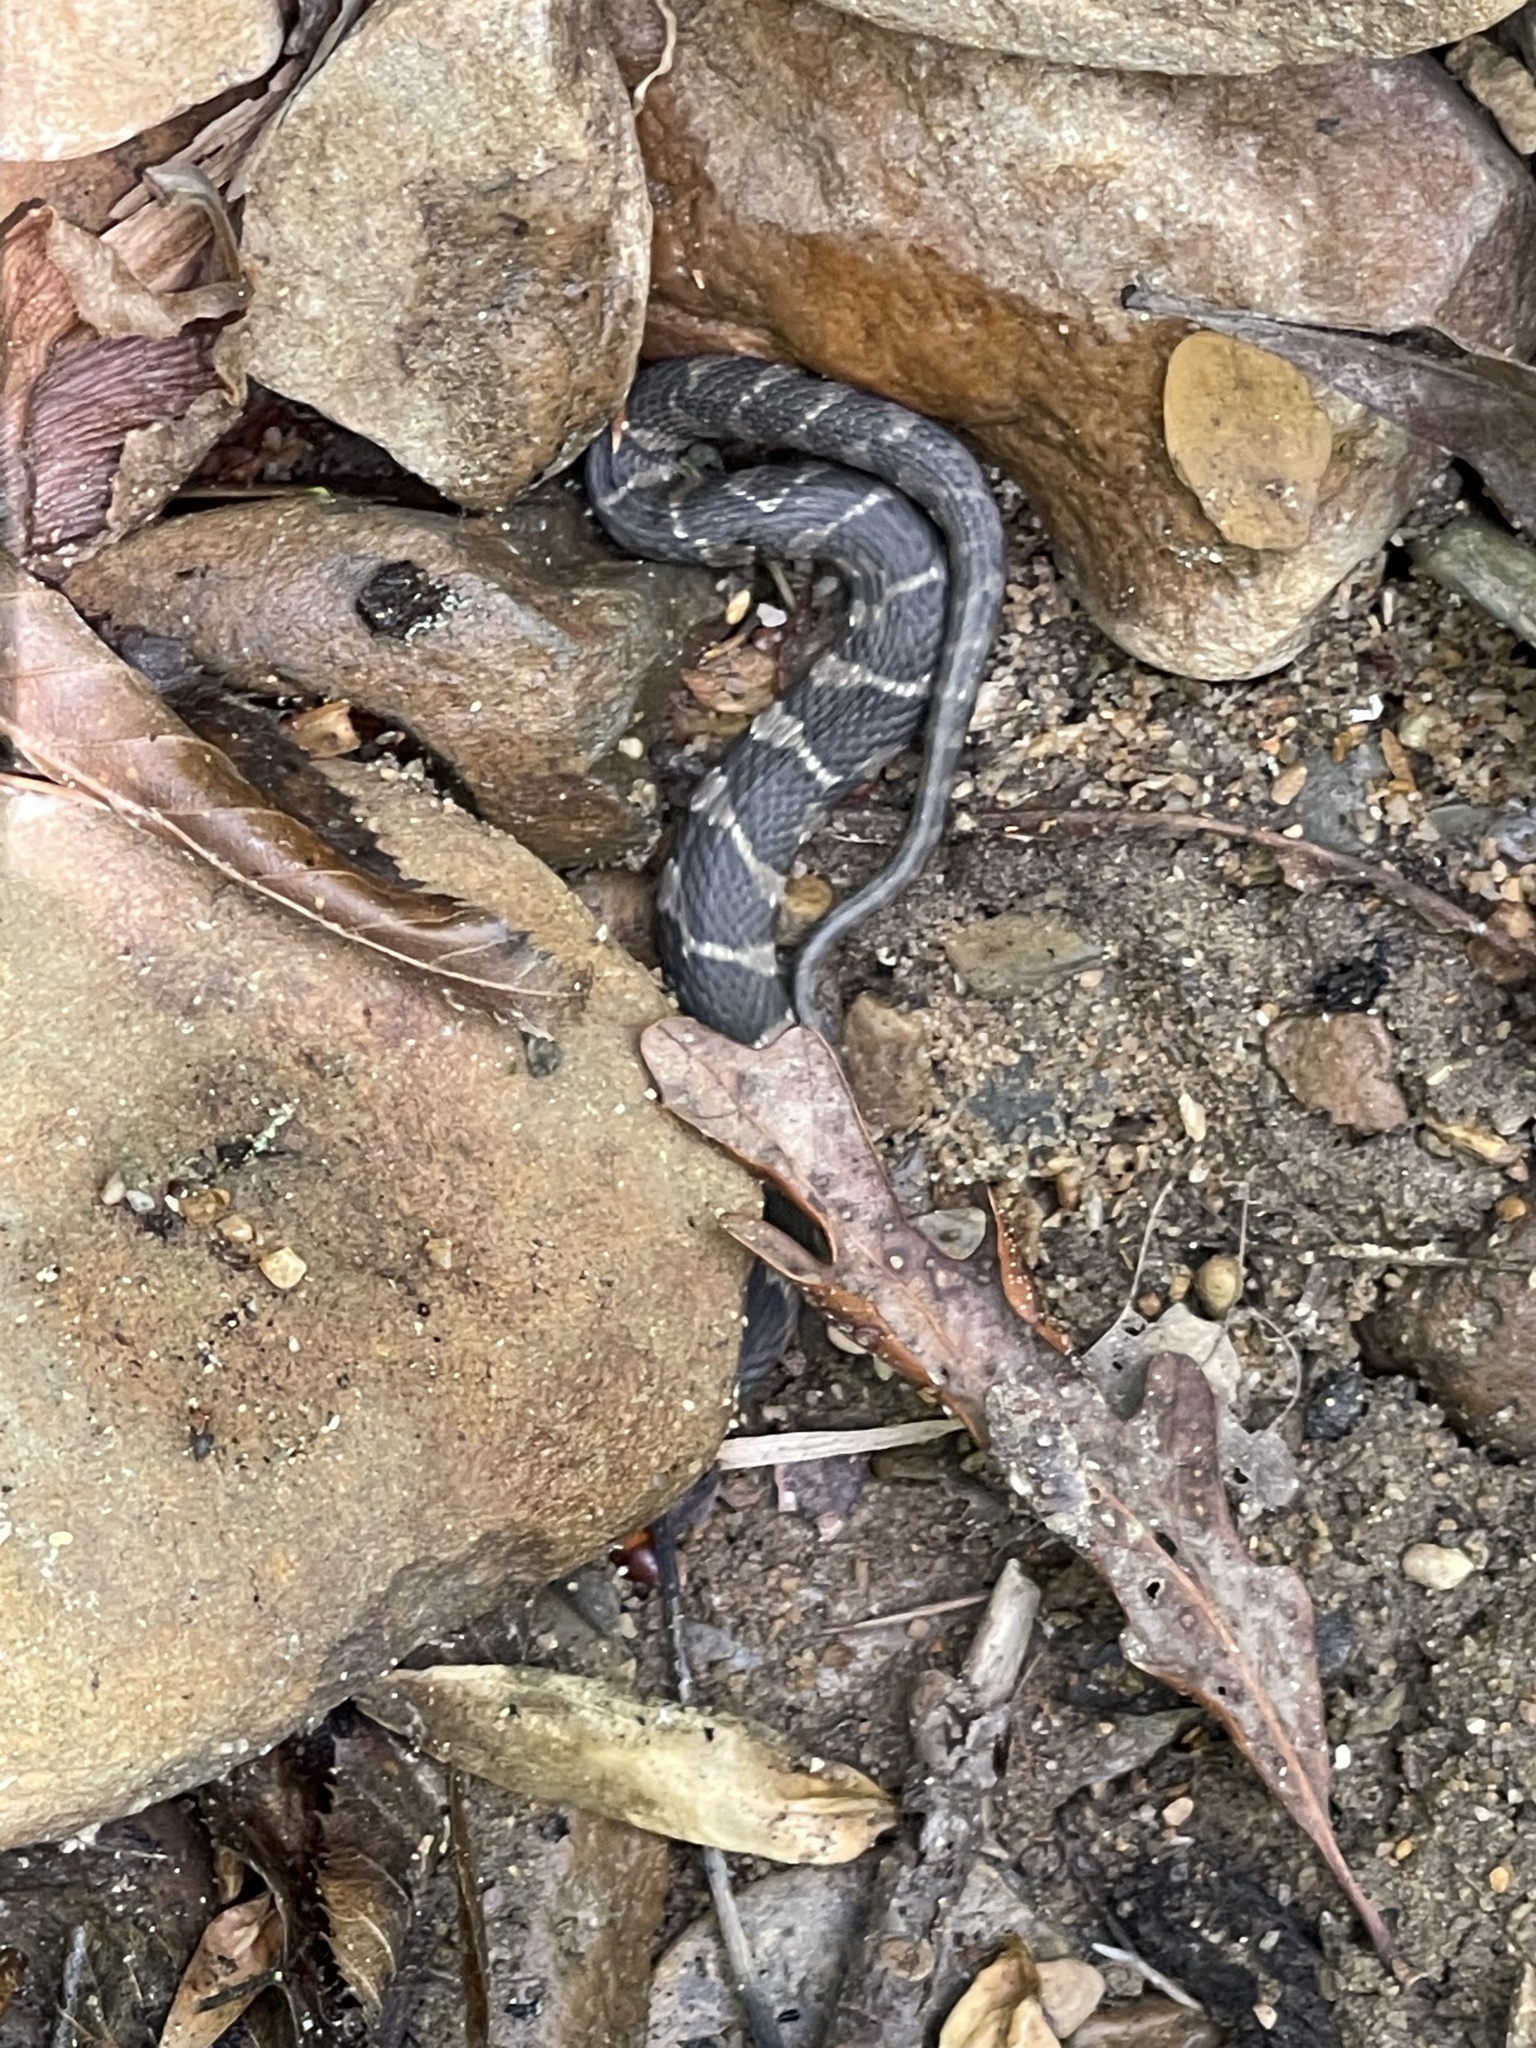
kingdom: Animalia
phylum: Chordata
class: Squamata
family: Colubridae
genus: Nerodia
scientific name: Nerodia sipedon
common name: Northern water snake
